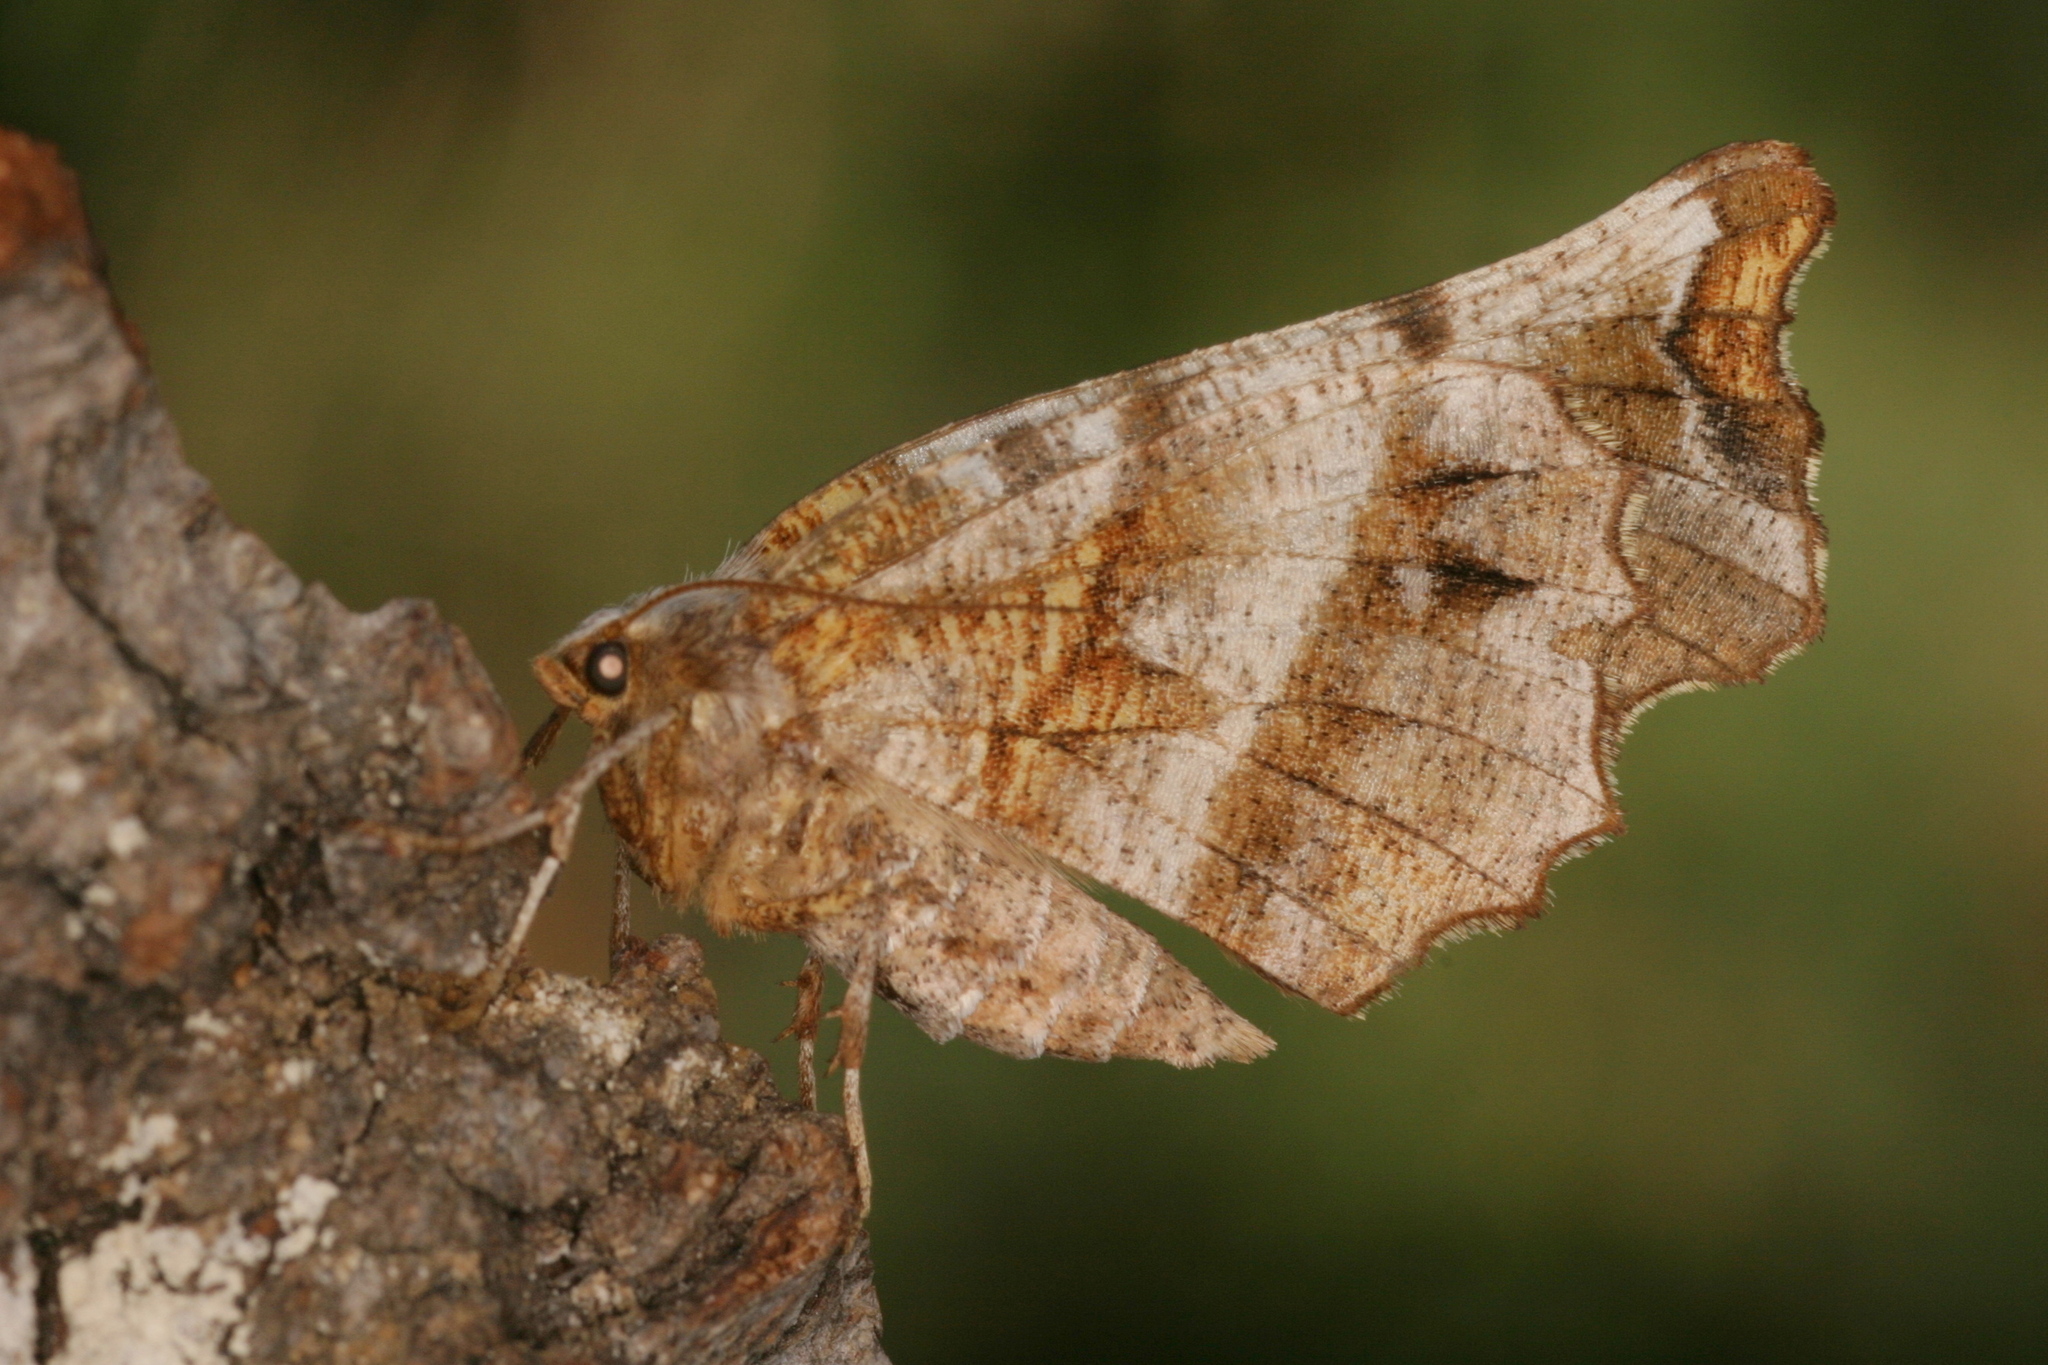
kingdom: Animalia
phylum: Arthropoda
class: Insecta
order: Lepidoptera
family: Geometridae
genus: Selenia
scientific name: Selenia dentaria
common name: Early thorn
